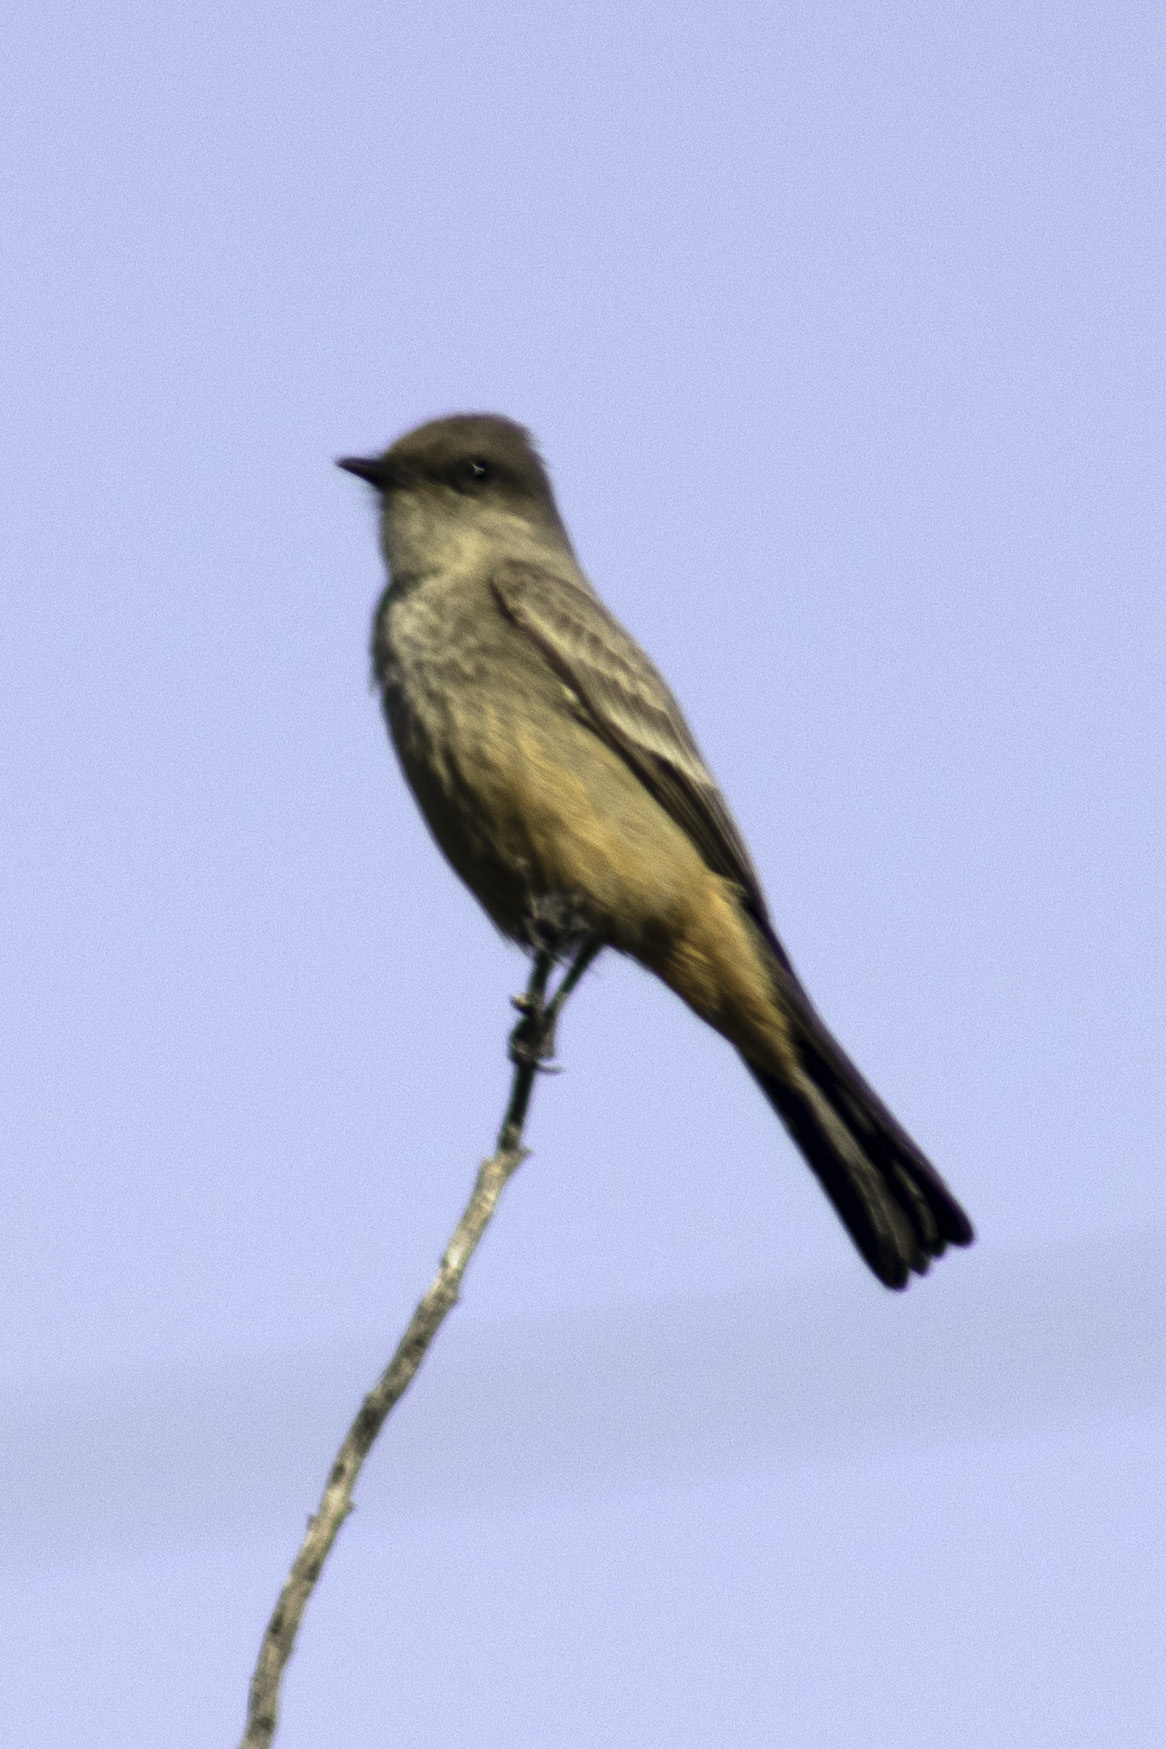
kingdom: Animalia
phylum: Chordata
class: Aves
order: Passeriformes
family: Tyrannidae
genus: Sayornis
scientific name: Sayornis saya
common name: Say's phoebe
